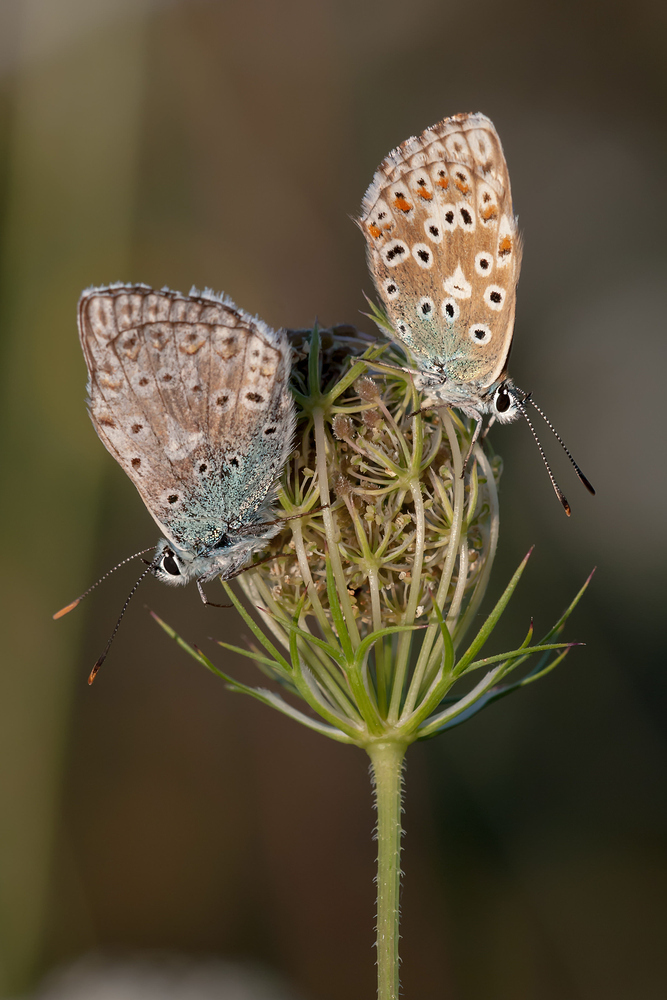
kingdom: Animalia
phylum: Arthropoda
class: Insecta
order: Lepidoptera
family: Lycaenidae
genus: Lysandra
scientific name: Lysandra coridon
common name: Chalkhill blue
